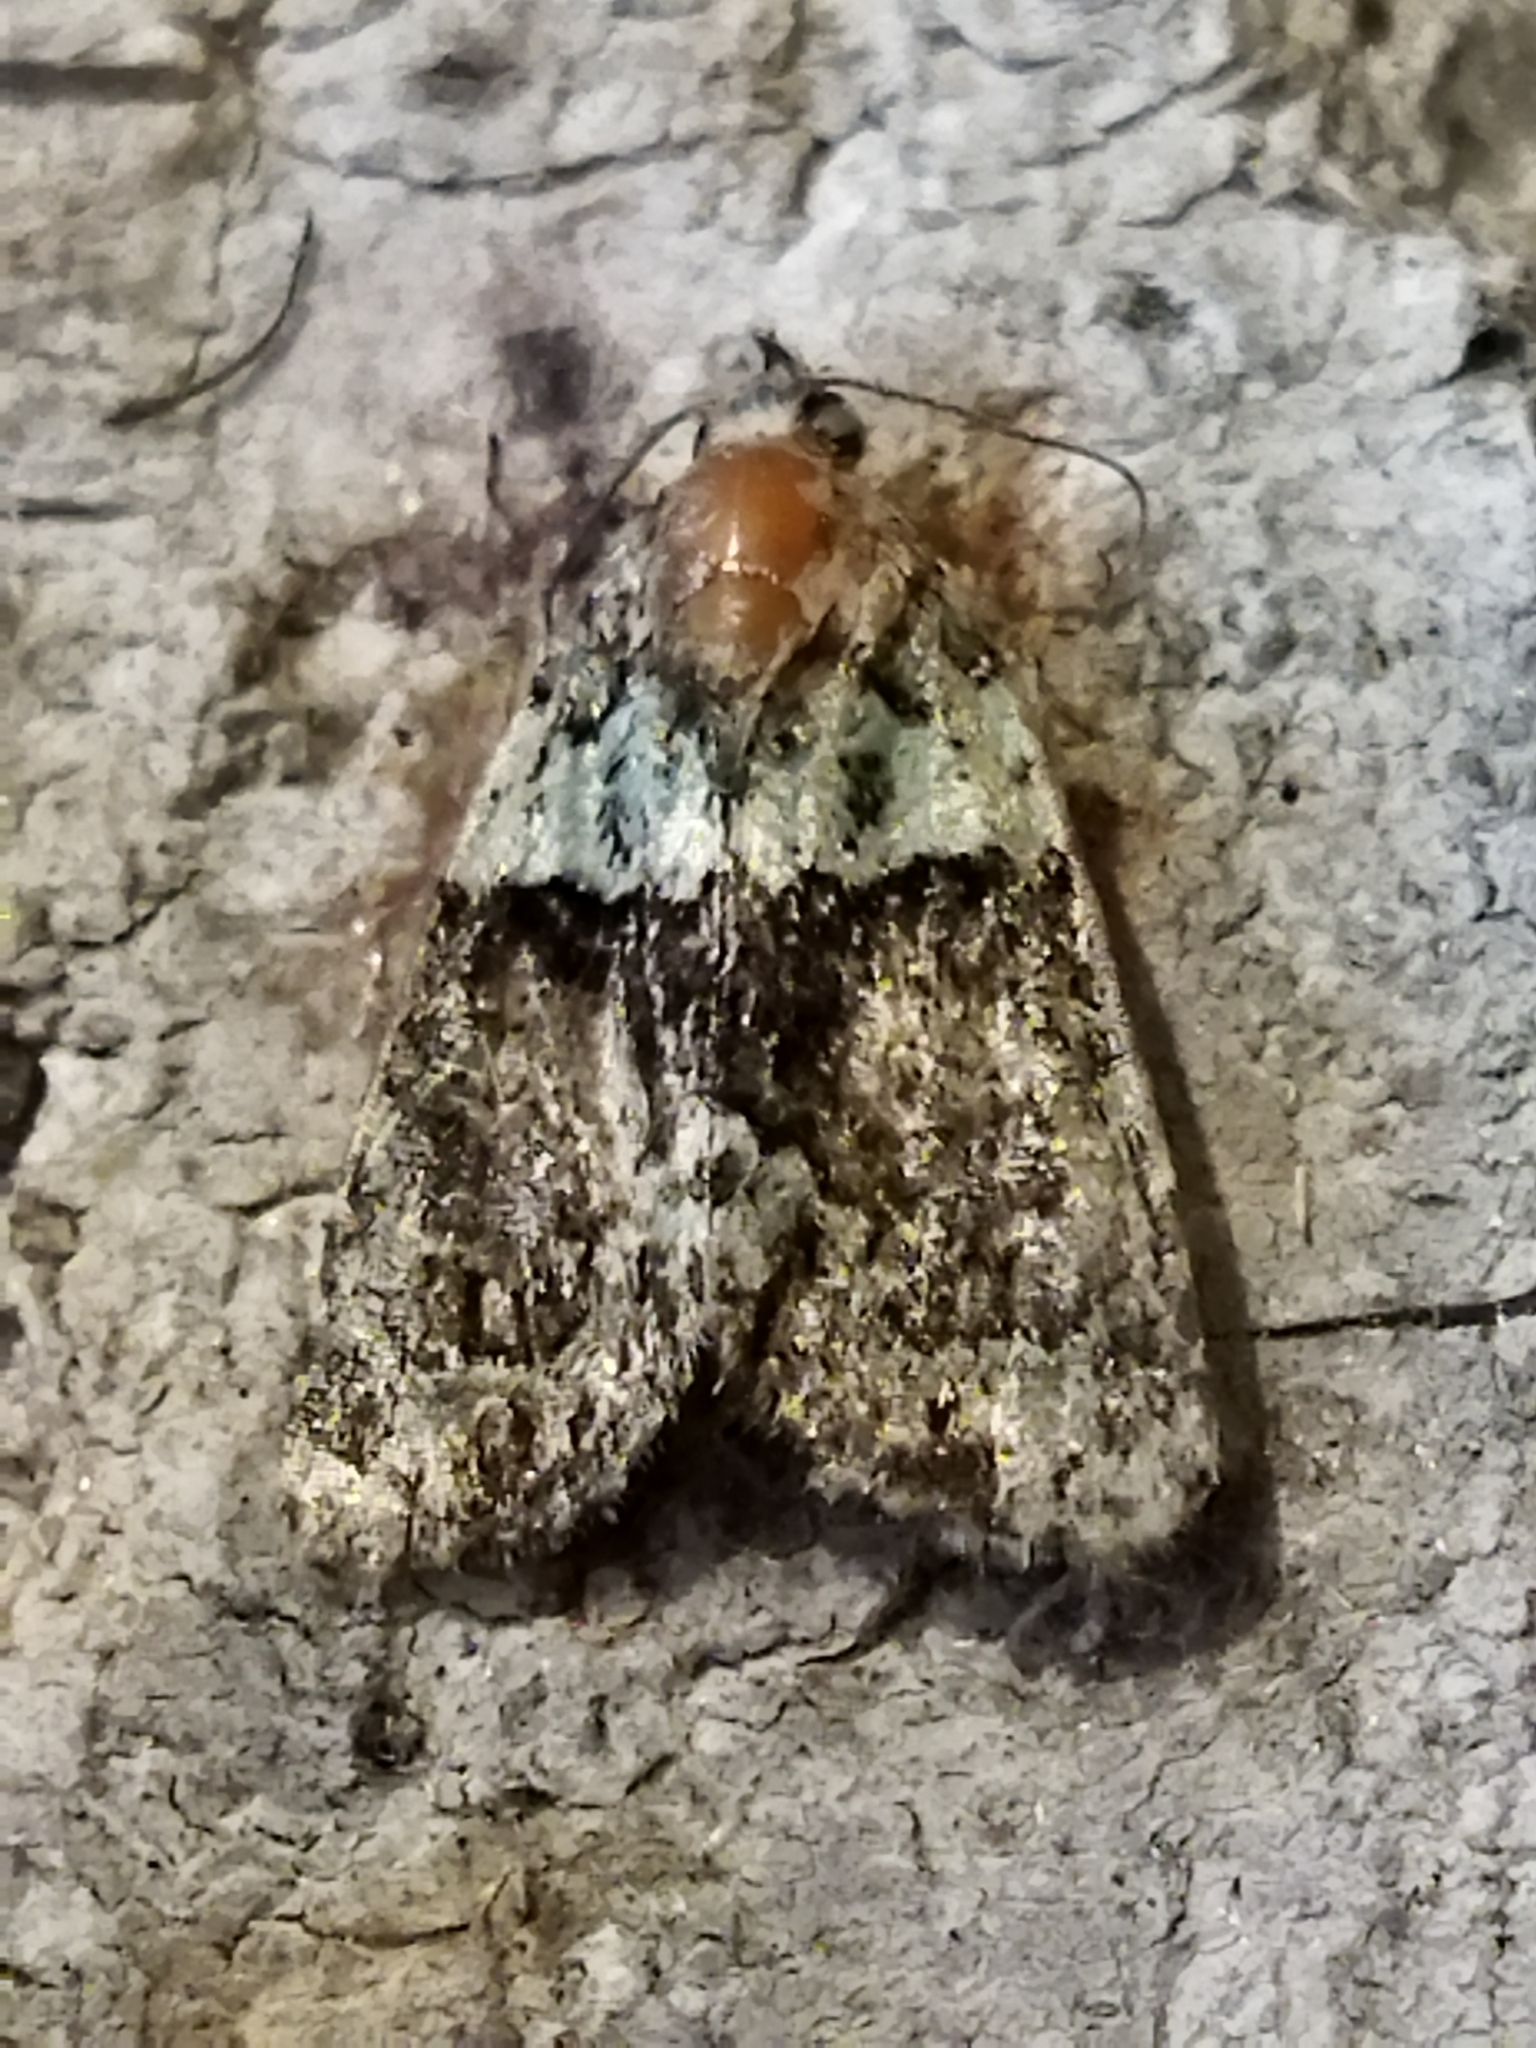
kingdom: Animalia
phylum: Arthropoda
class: Insecta
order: Lepidoptera
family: Noctuidae
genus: Cryphia
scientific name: Cryphia algae
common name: Tree-lichen beauty
